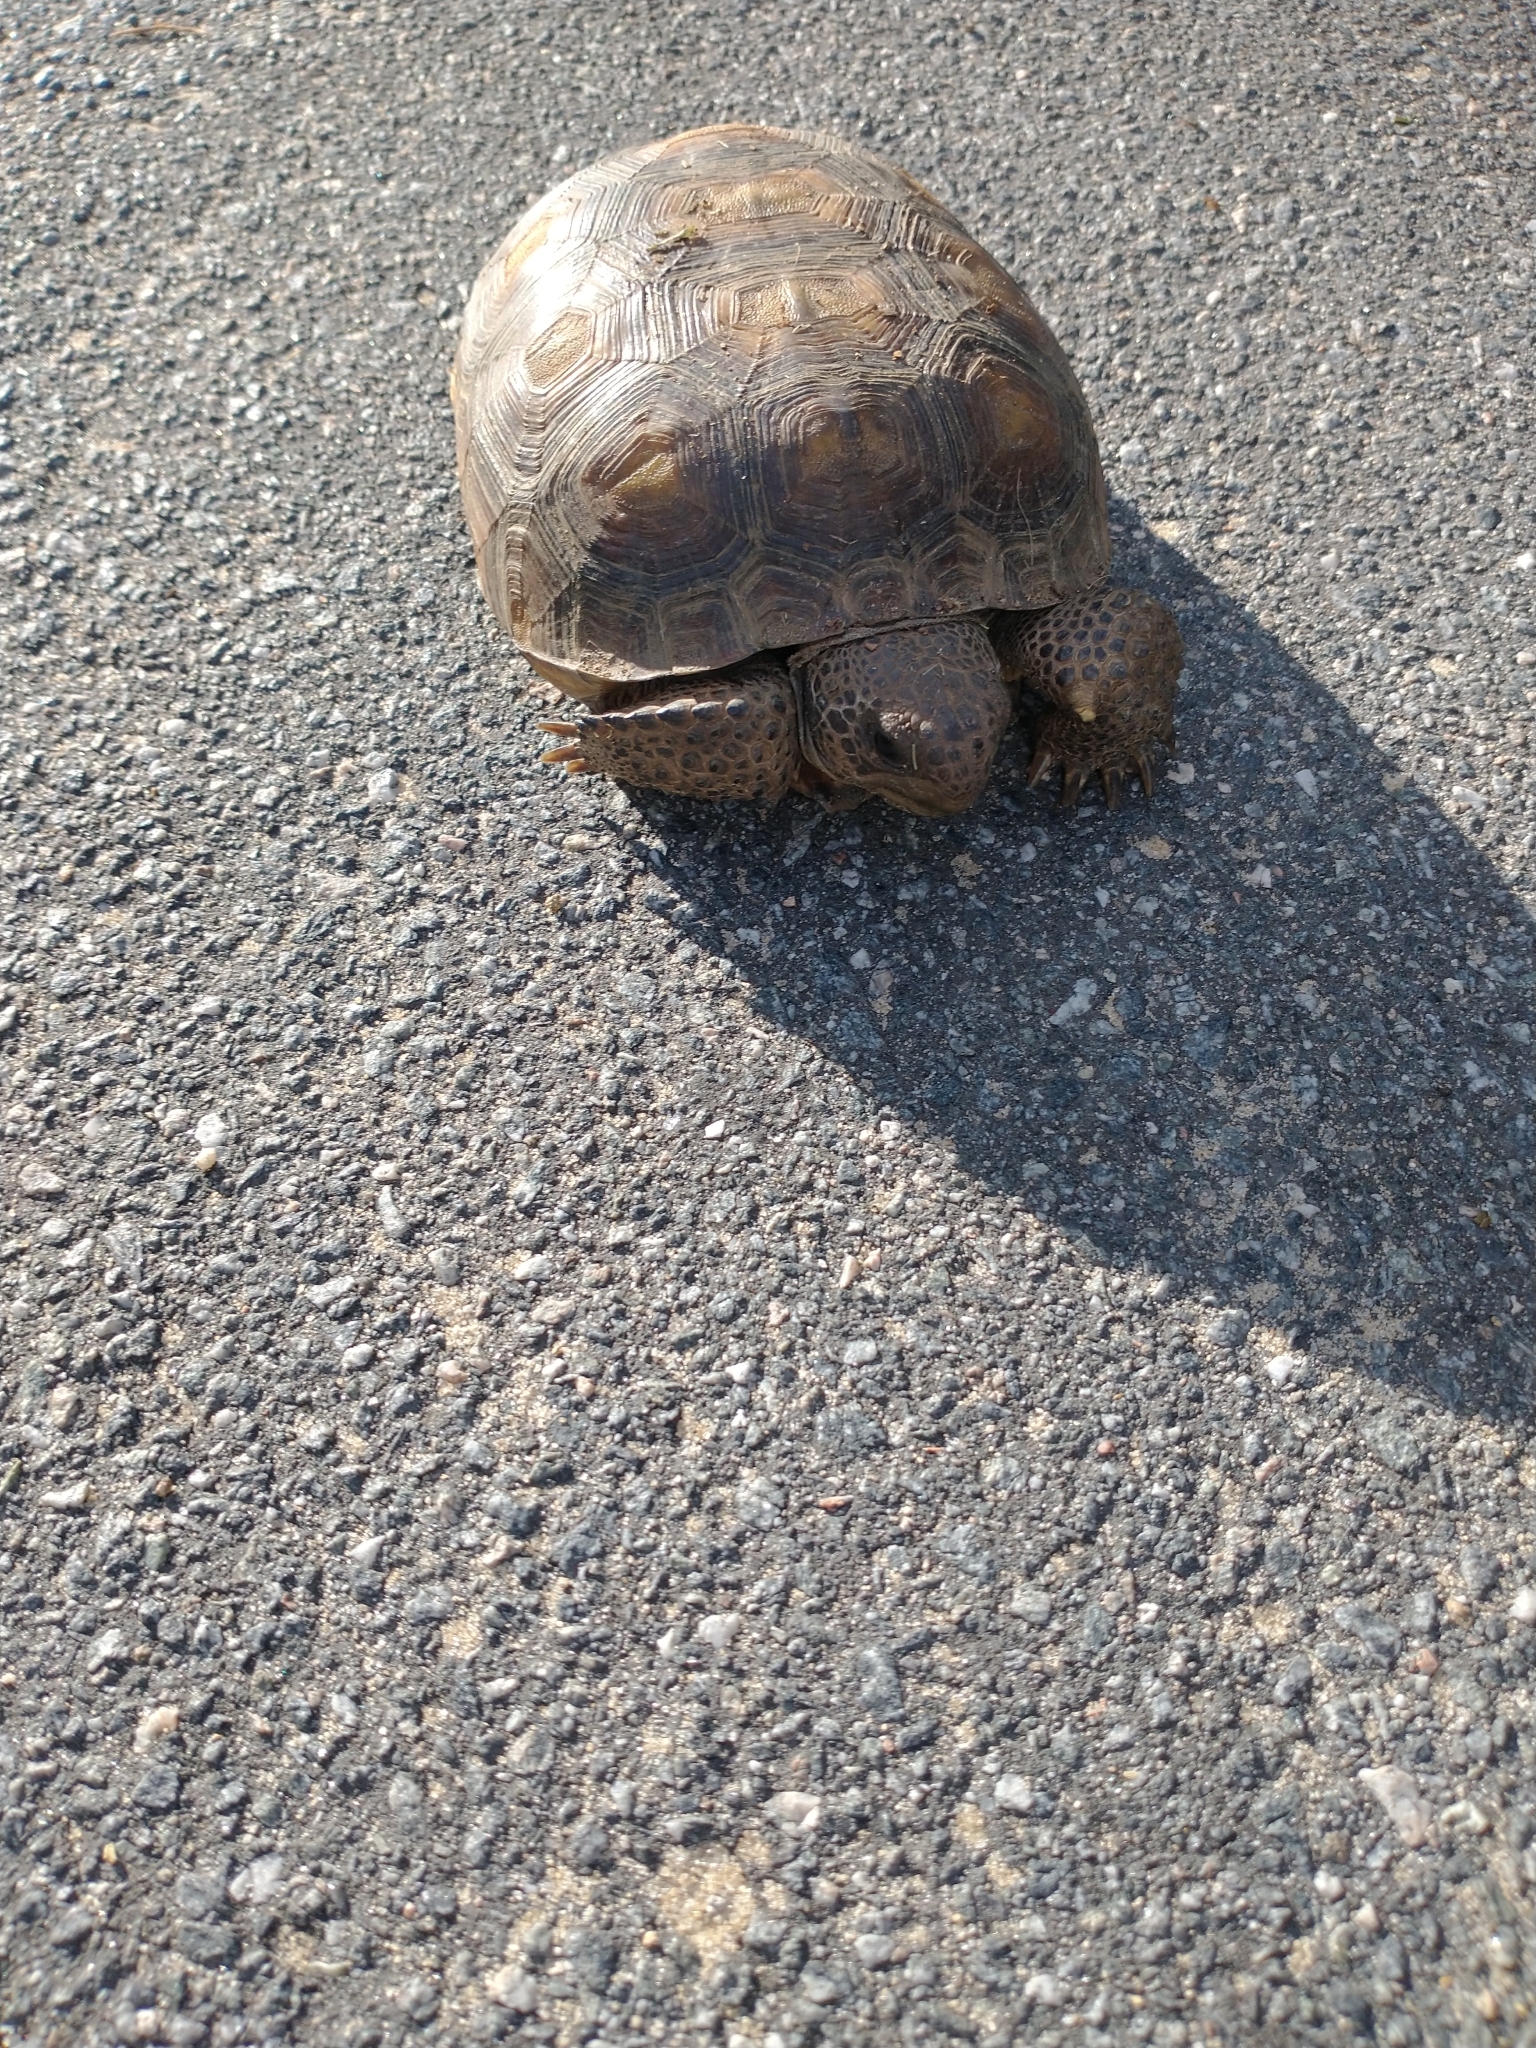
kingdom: Animalia
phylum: Chordata
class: Testudines
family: Testudinidae
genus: Gopherus
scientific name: Gopherus polyphemus
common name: Florida gopher tortoise
